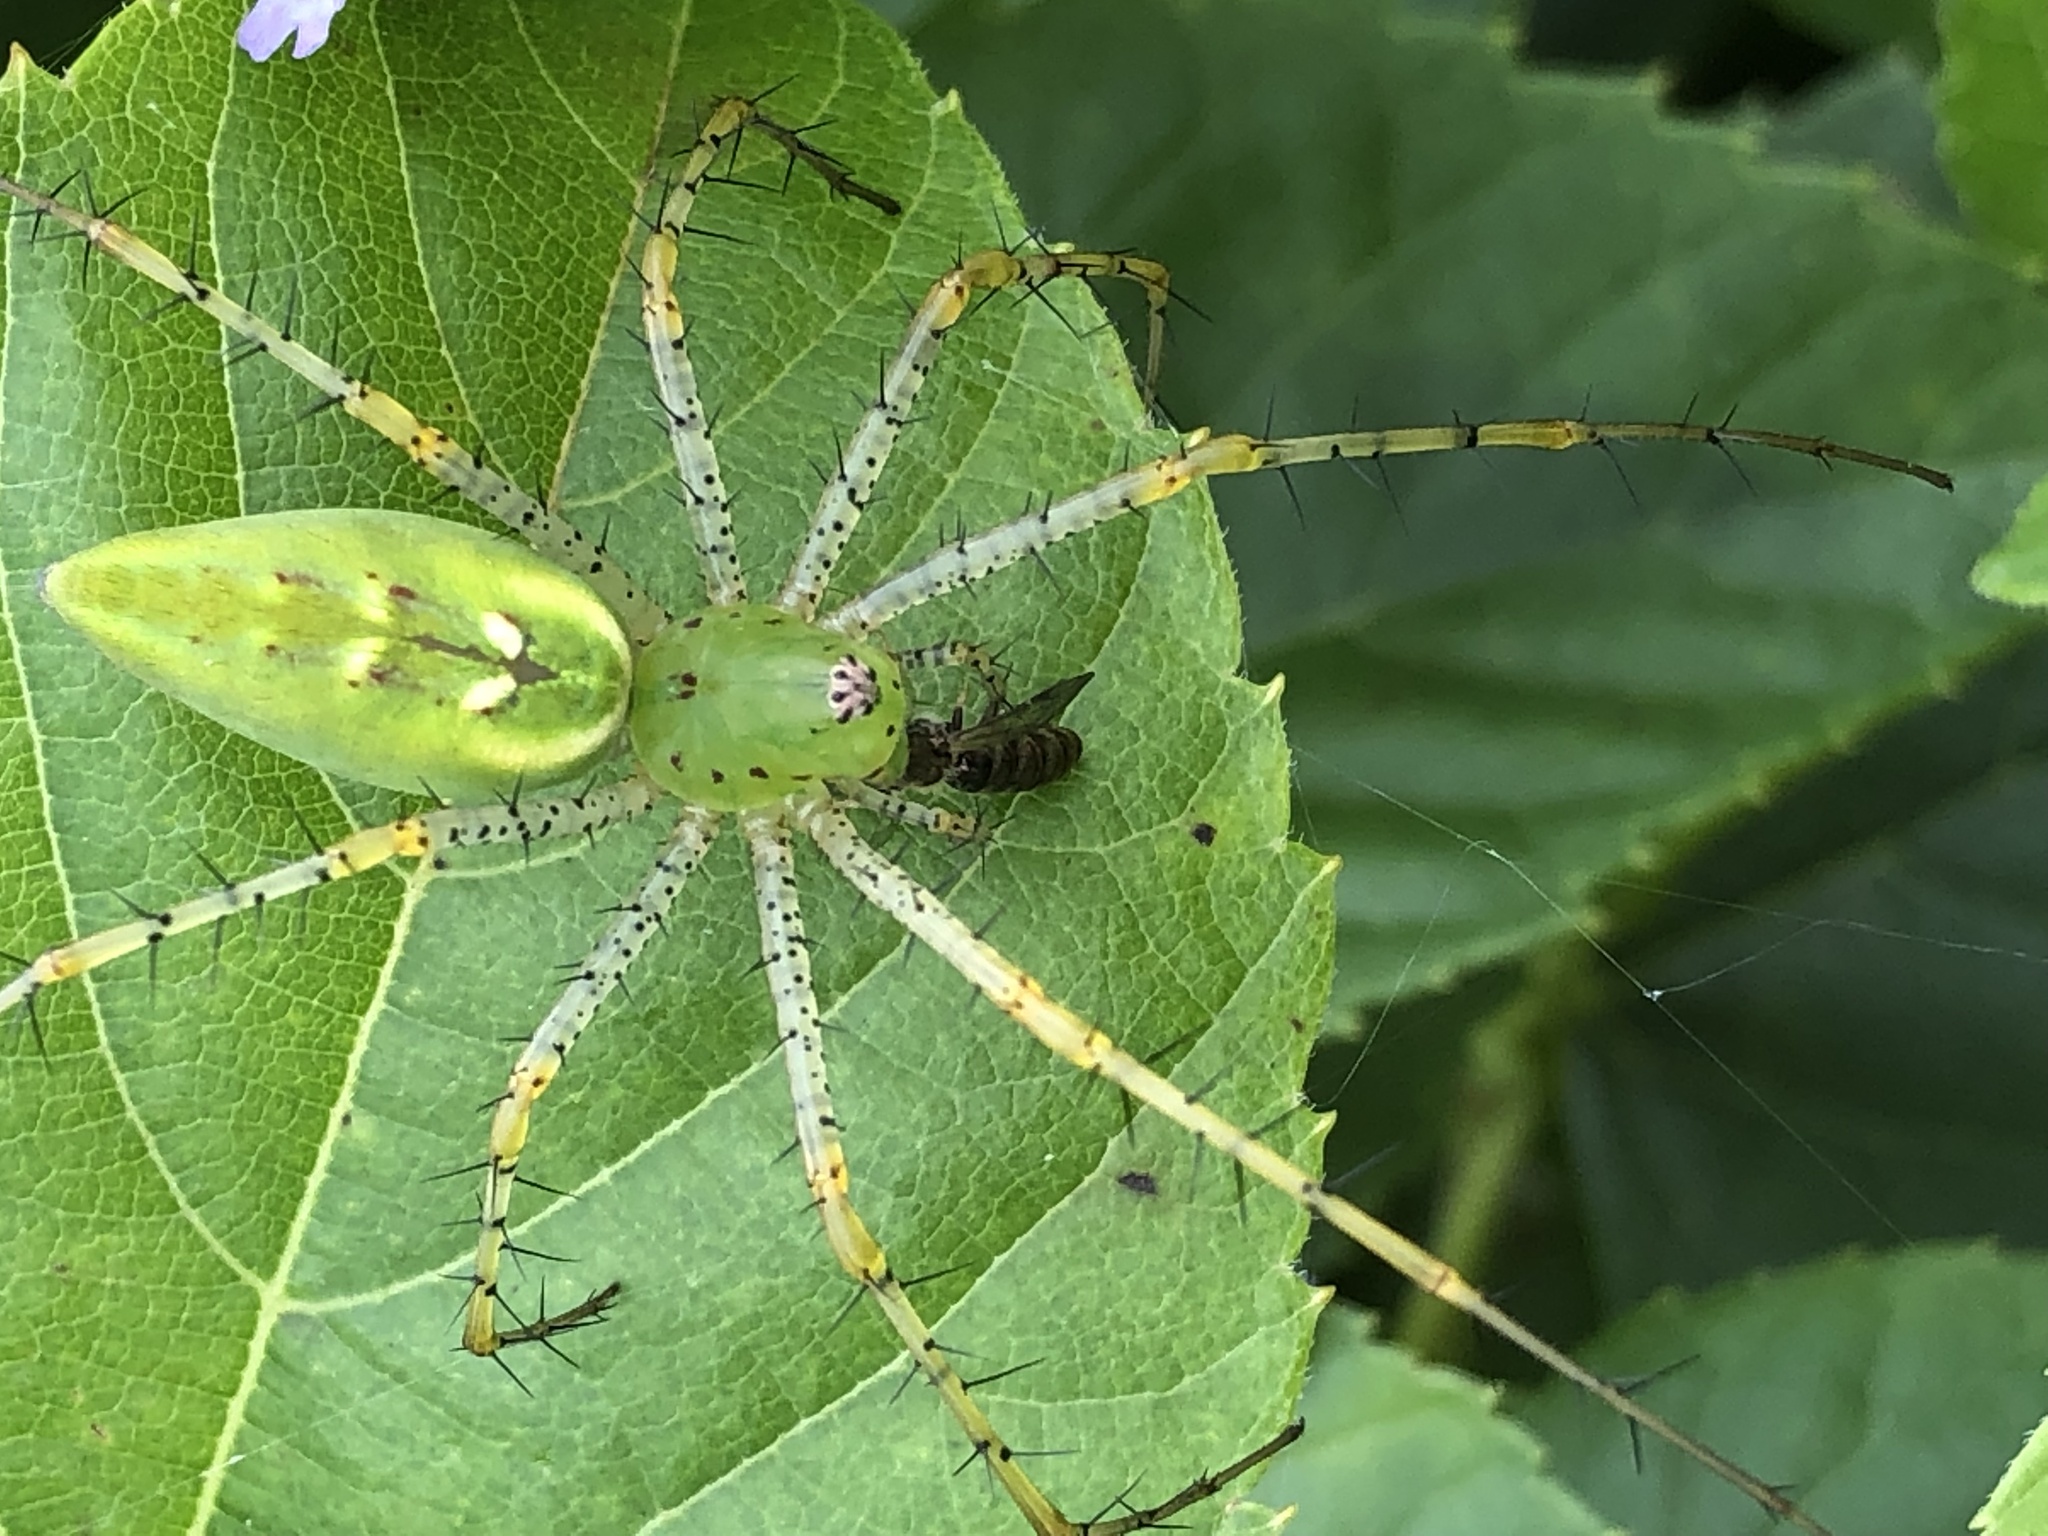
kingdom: Animalia
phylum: Arthropoda
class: Arachnida
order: Araneae
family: Oxyopidae
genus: Peucetia
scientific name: Peucetia viridans
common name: Lynx spiders
